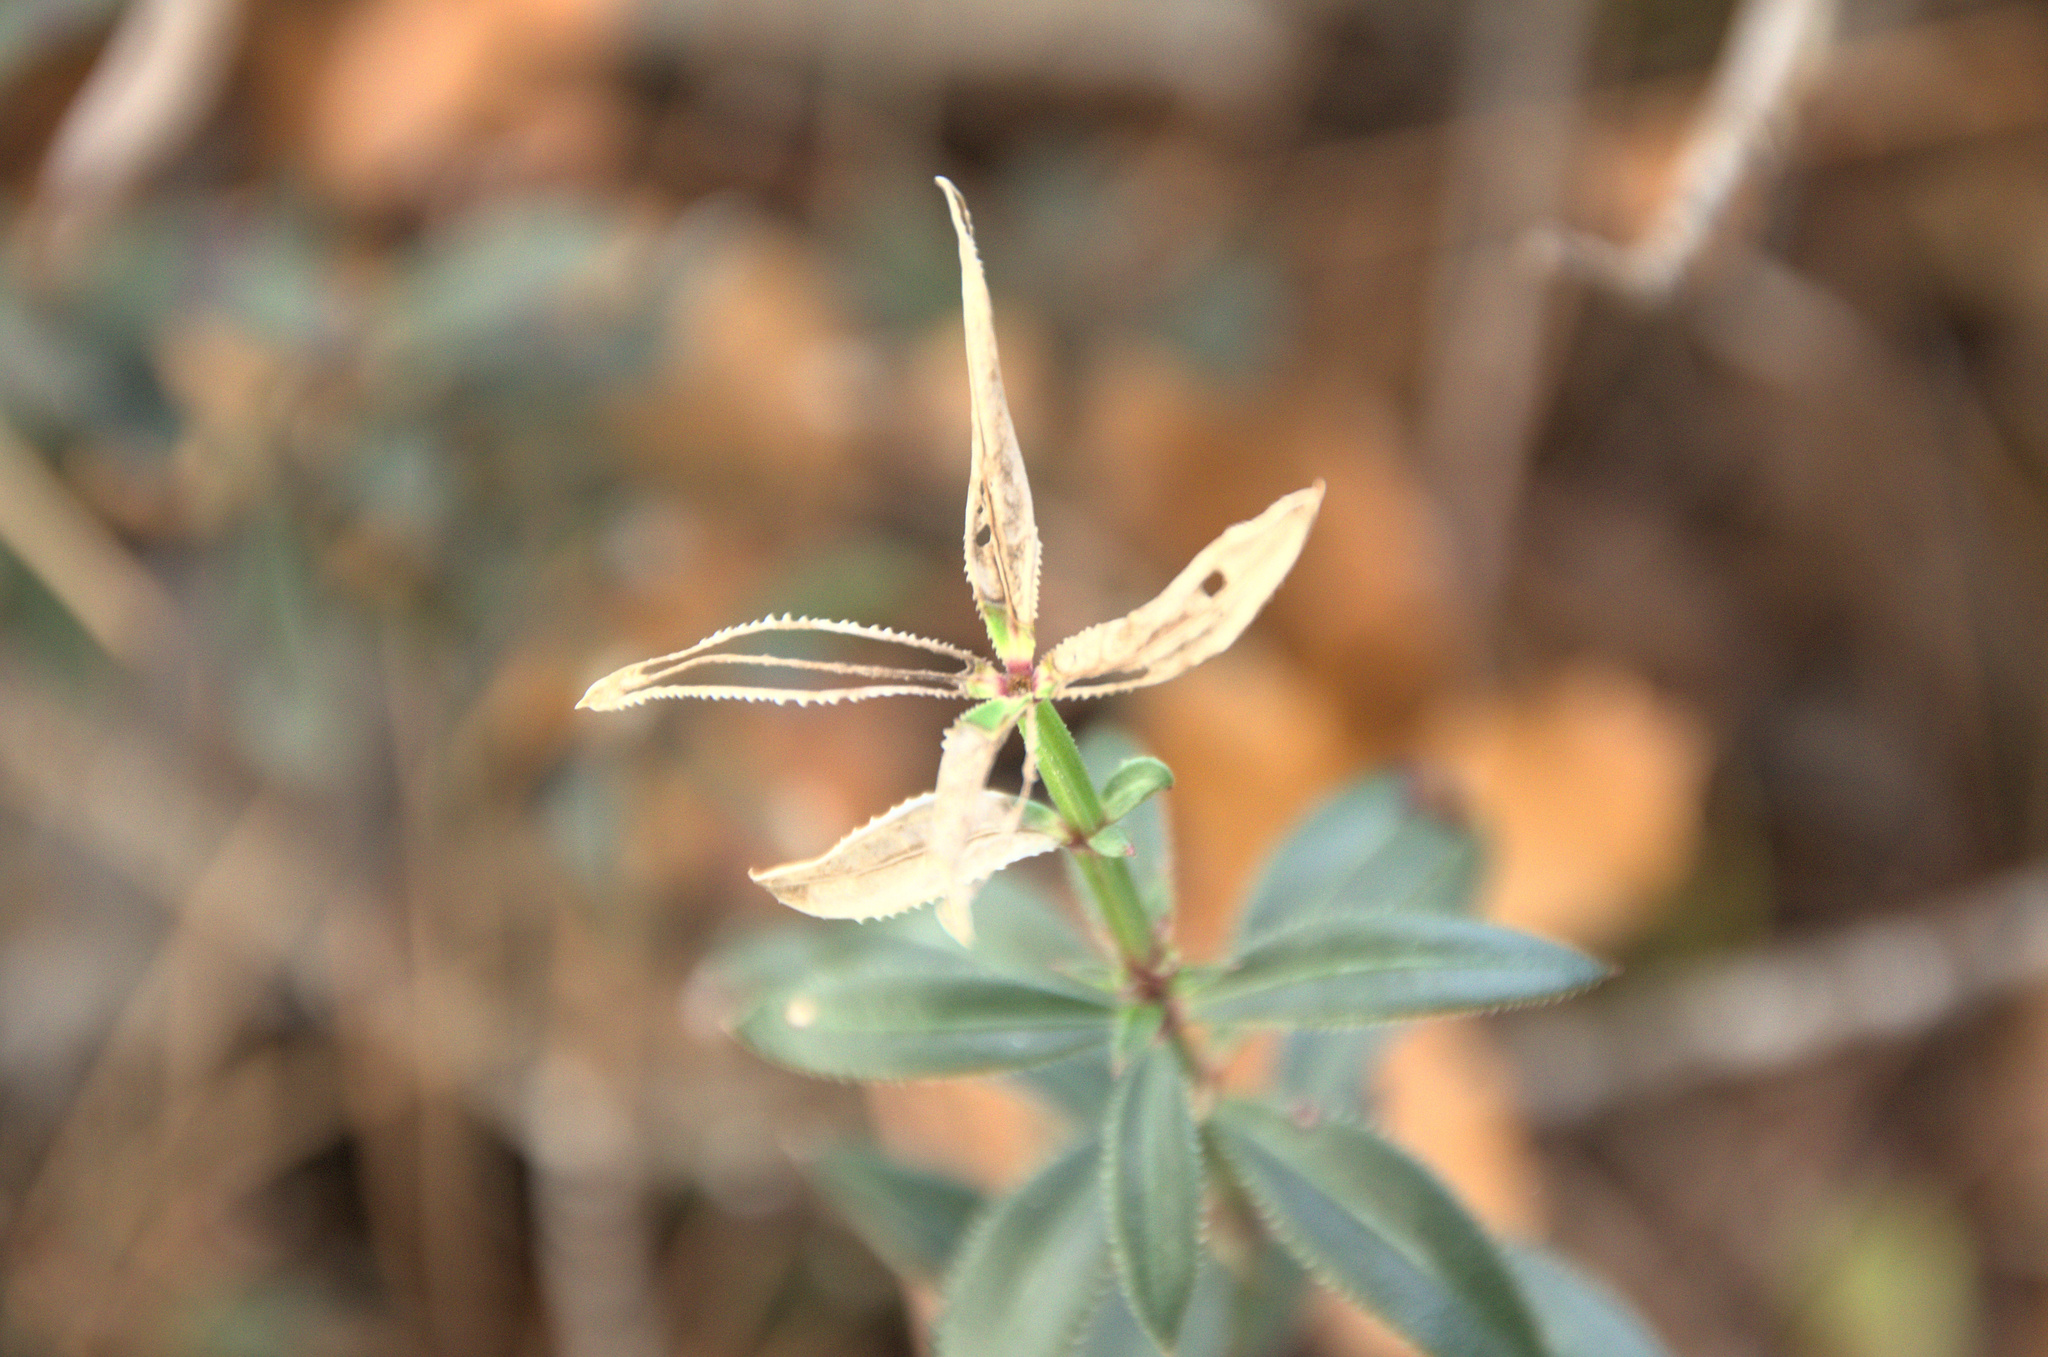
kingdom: Plantae
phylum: Tracheophyta
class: Magnoliopsida
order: Gentianales
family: Rubiaceae
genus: Rubia
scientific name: Rubia peregrina
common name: Wild madder
